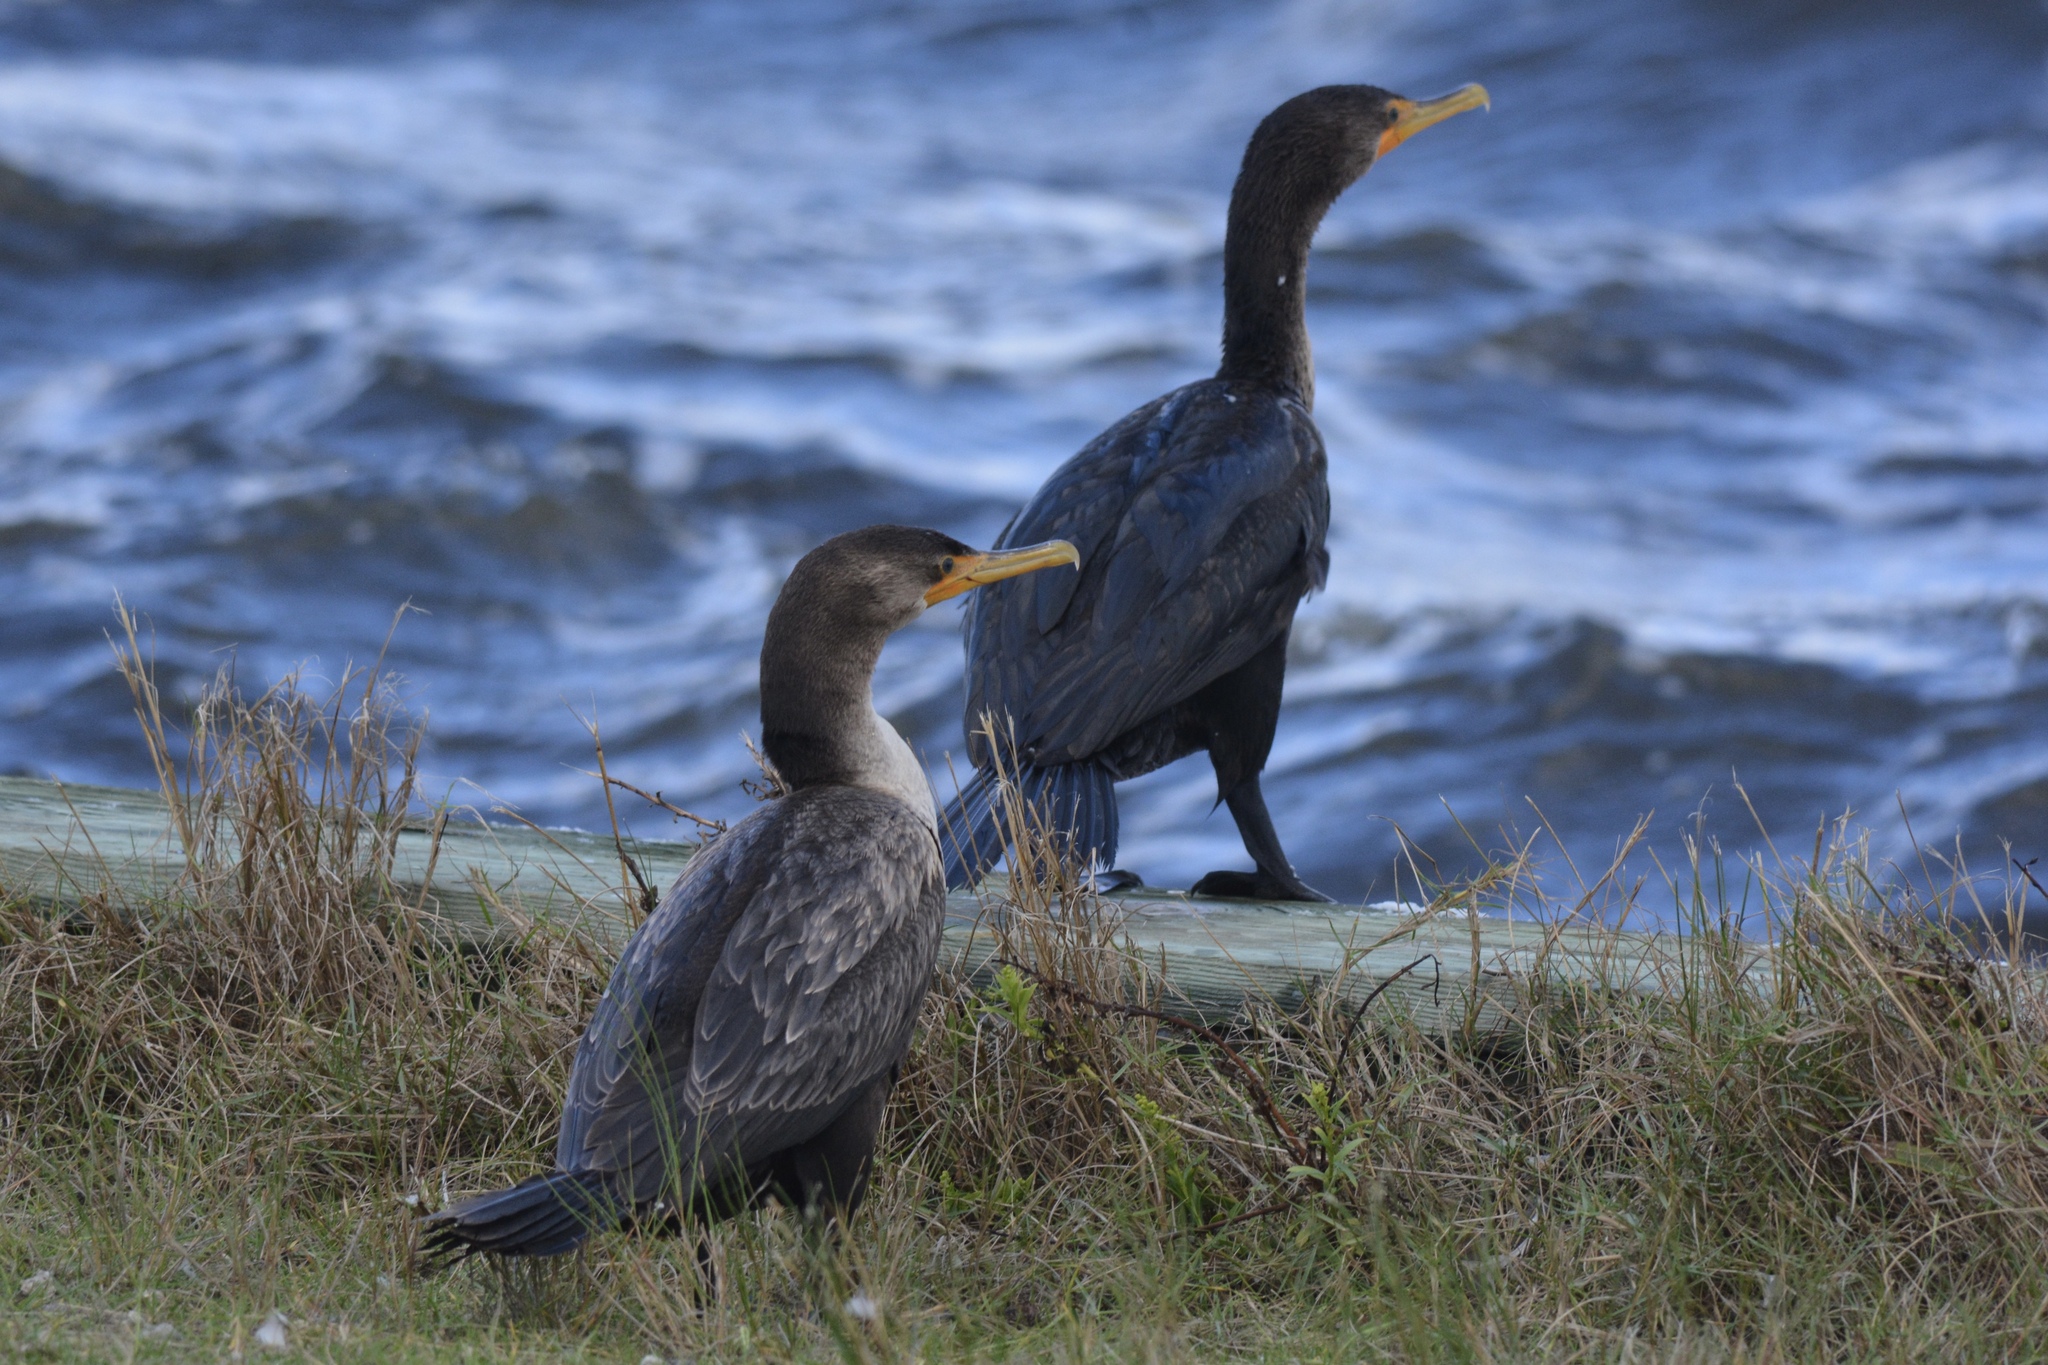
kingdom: Animalia
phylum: Chordata
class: Aves
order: Suliformes
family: Phalacrocoracidae
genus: Phalacrocorax
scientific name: Phalacrocorax auritus
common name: Double-crested cormorant
